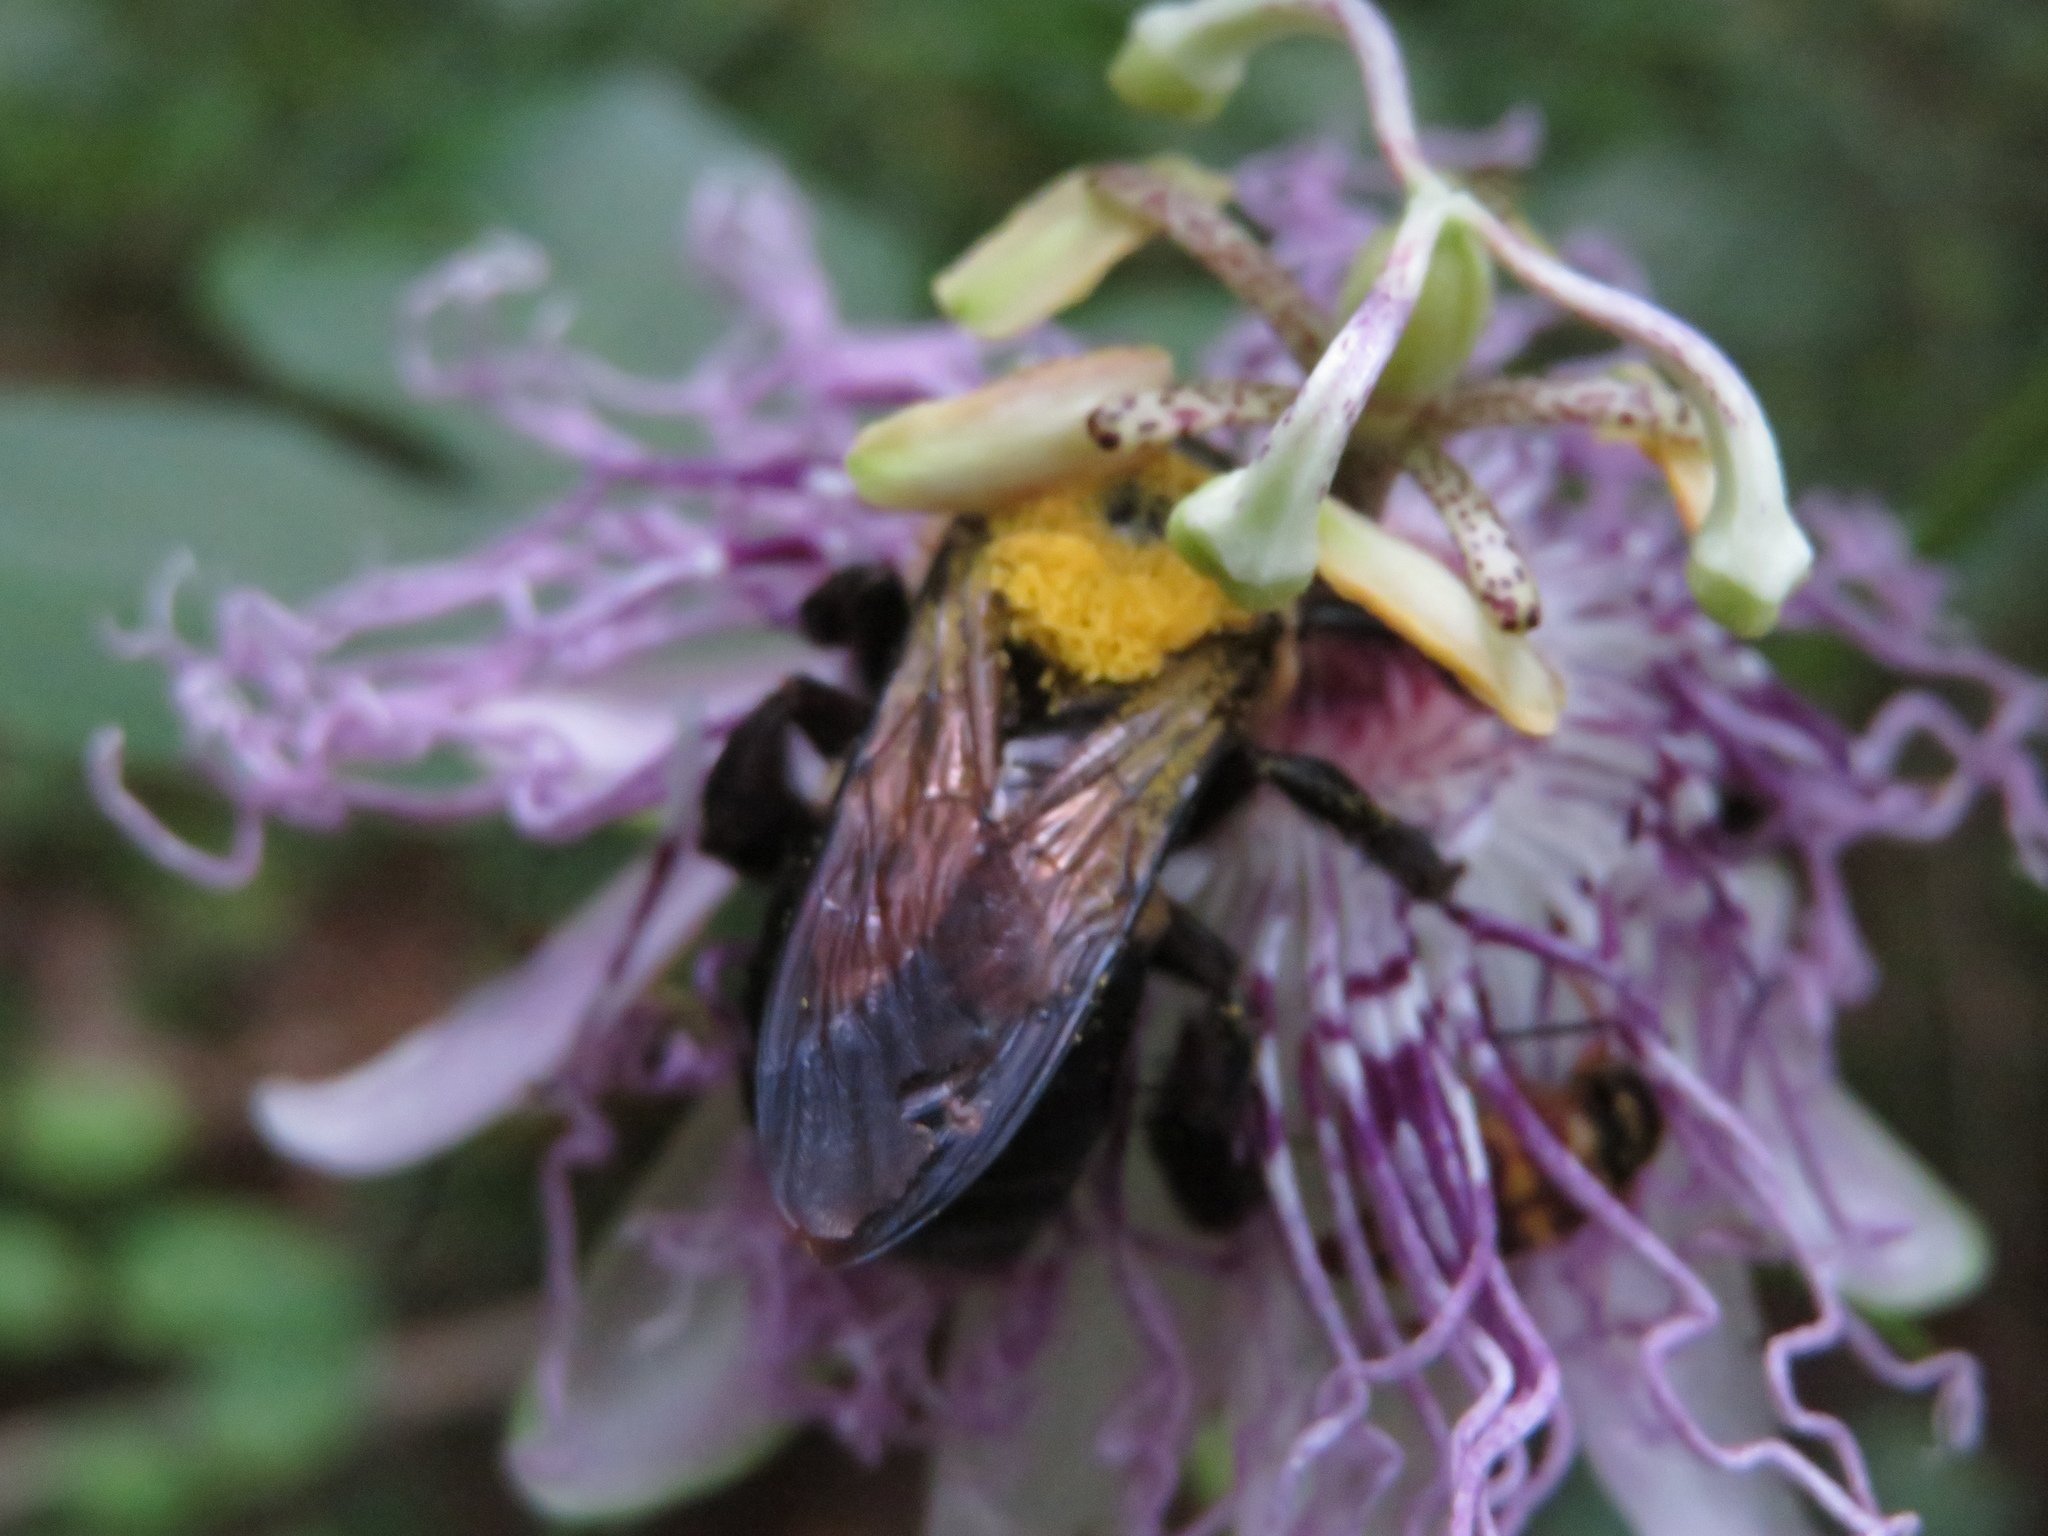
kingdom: Animalia
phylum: Arthropoda
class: Insecta
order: Hymenoptera
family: Apidae
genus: Xylocopa
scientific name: Xylocopa virginica
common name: Carpenter bee
